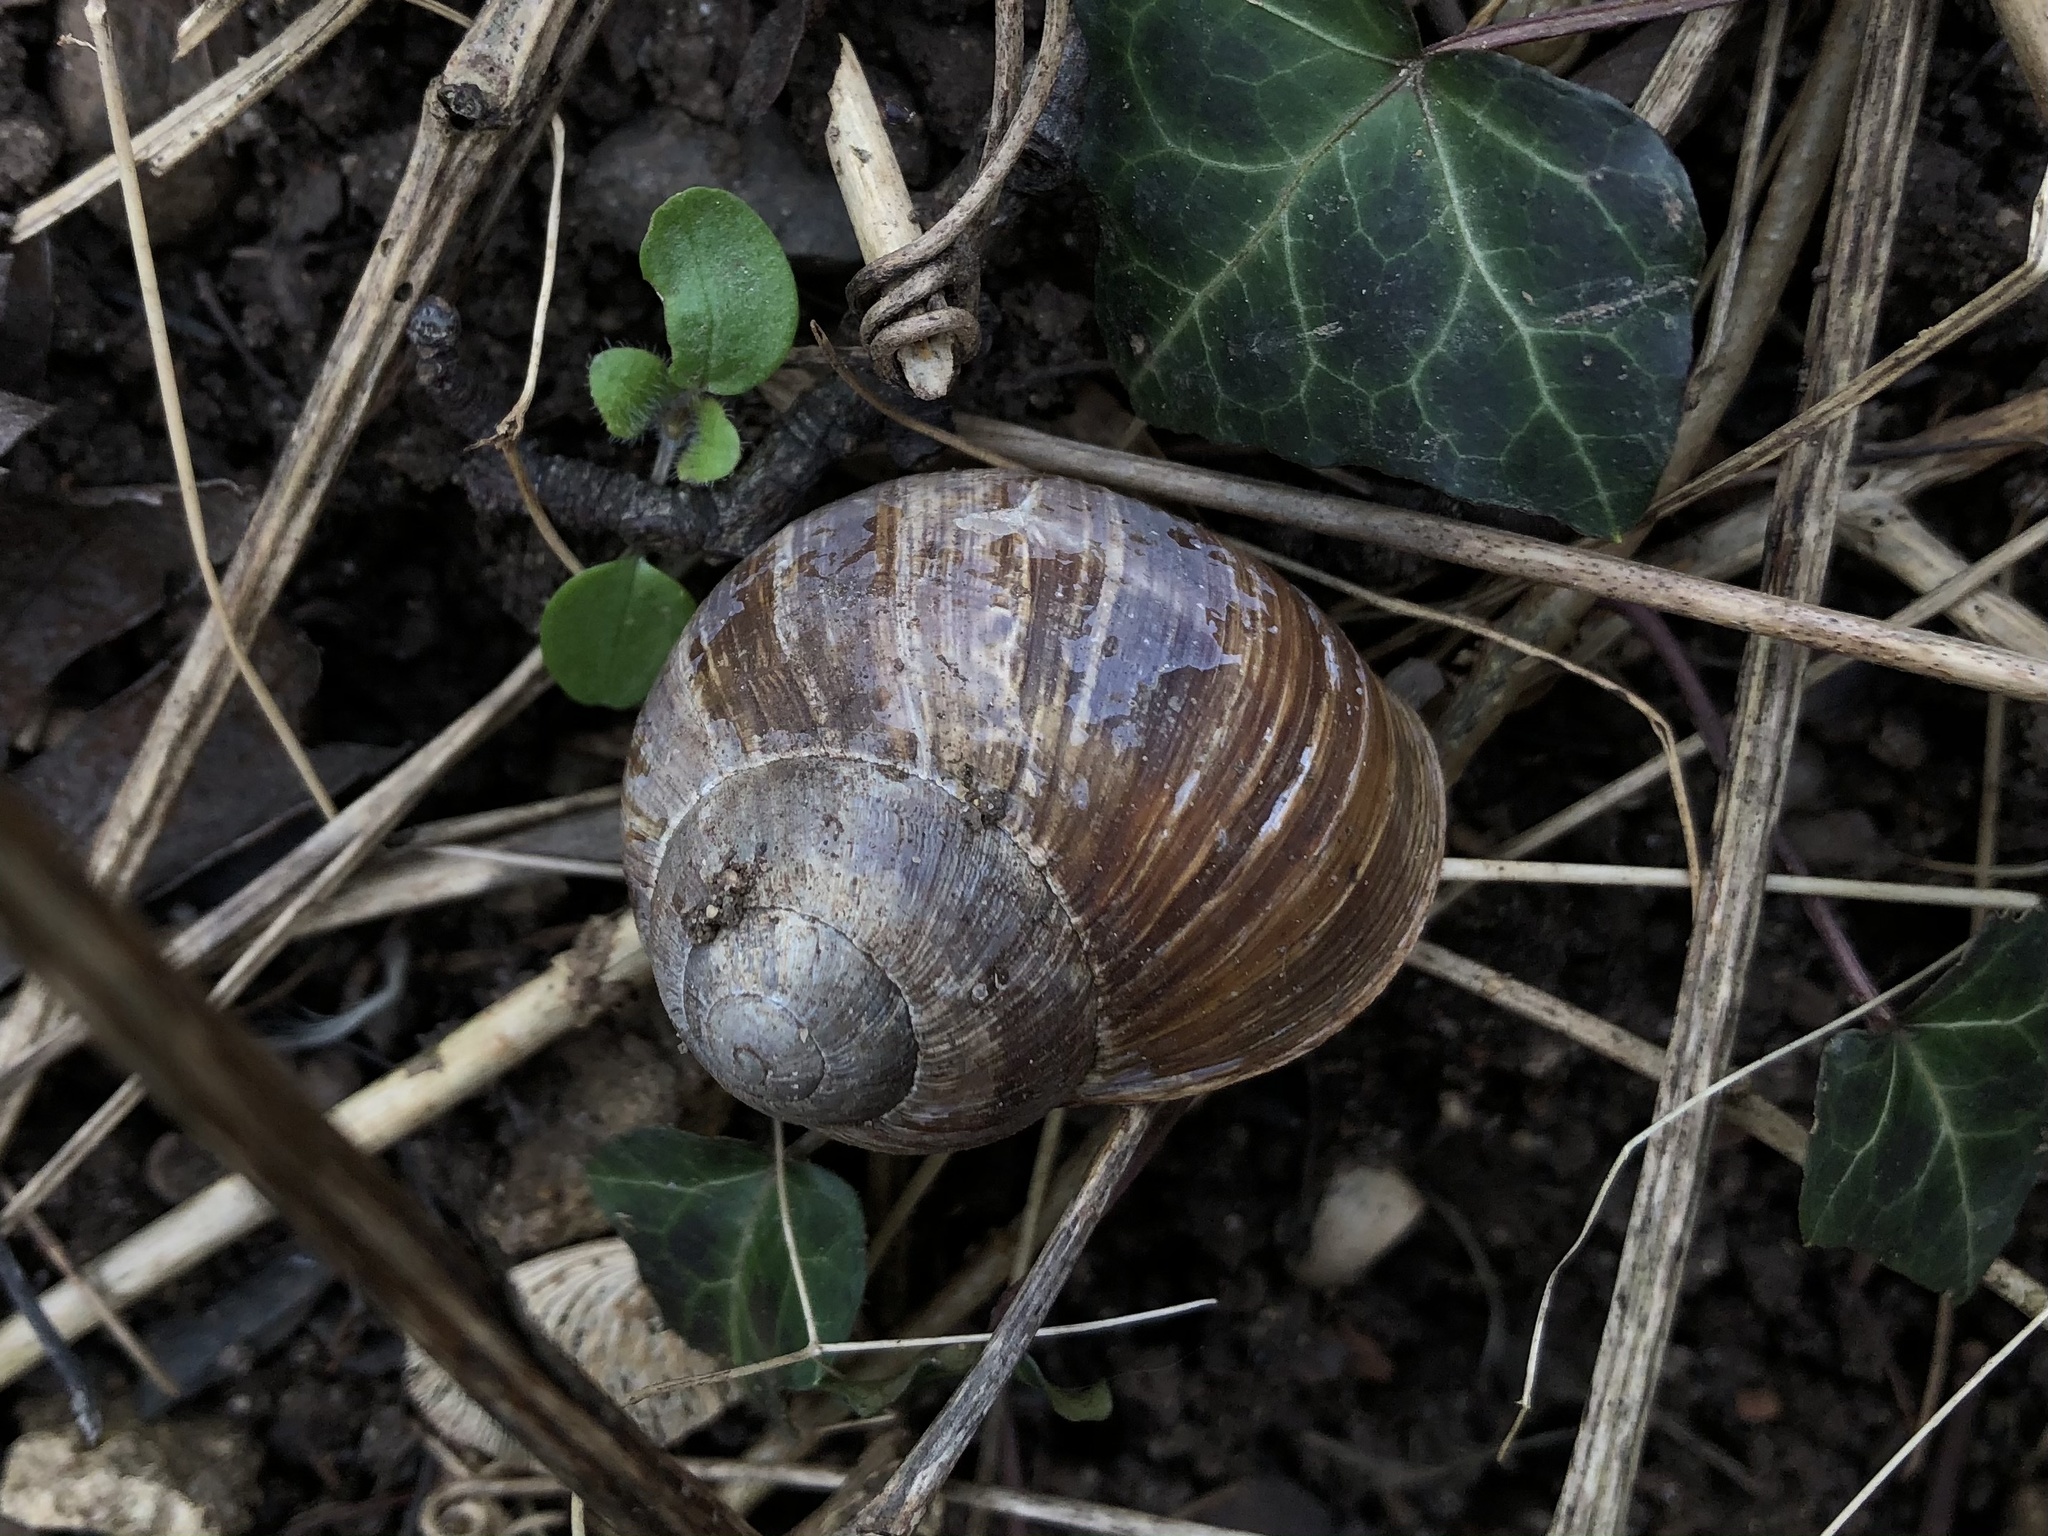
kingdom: Animalia
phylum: Mollusca
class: Gastropoda
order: Stylommatophora
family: Helicidae
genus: Helix
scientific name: Helix pomatia
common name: Roman snail
